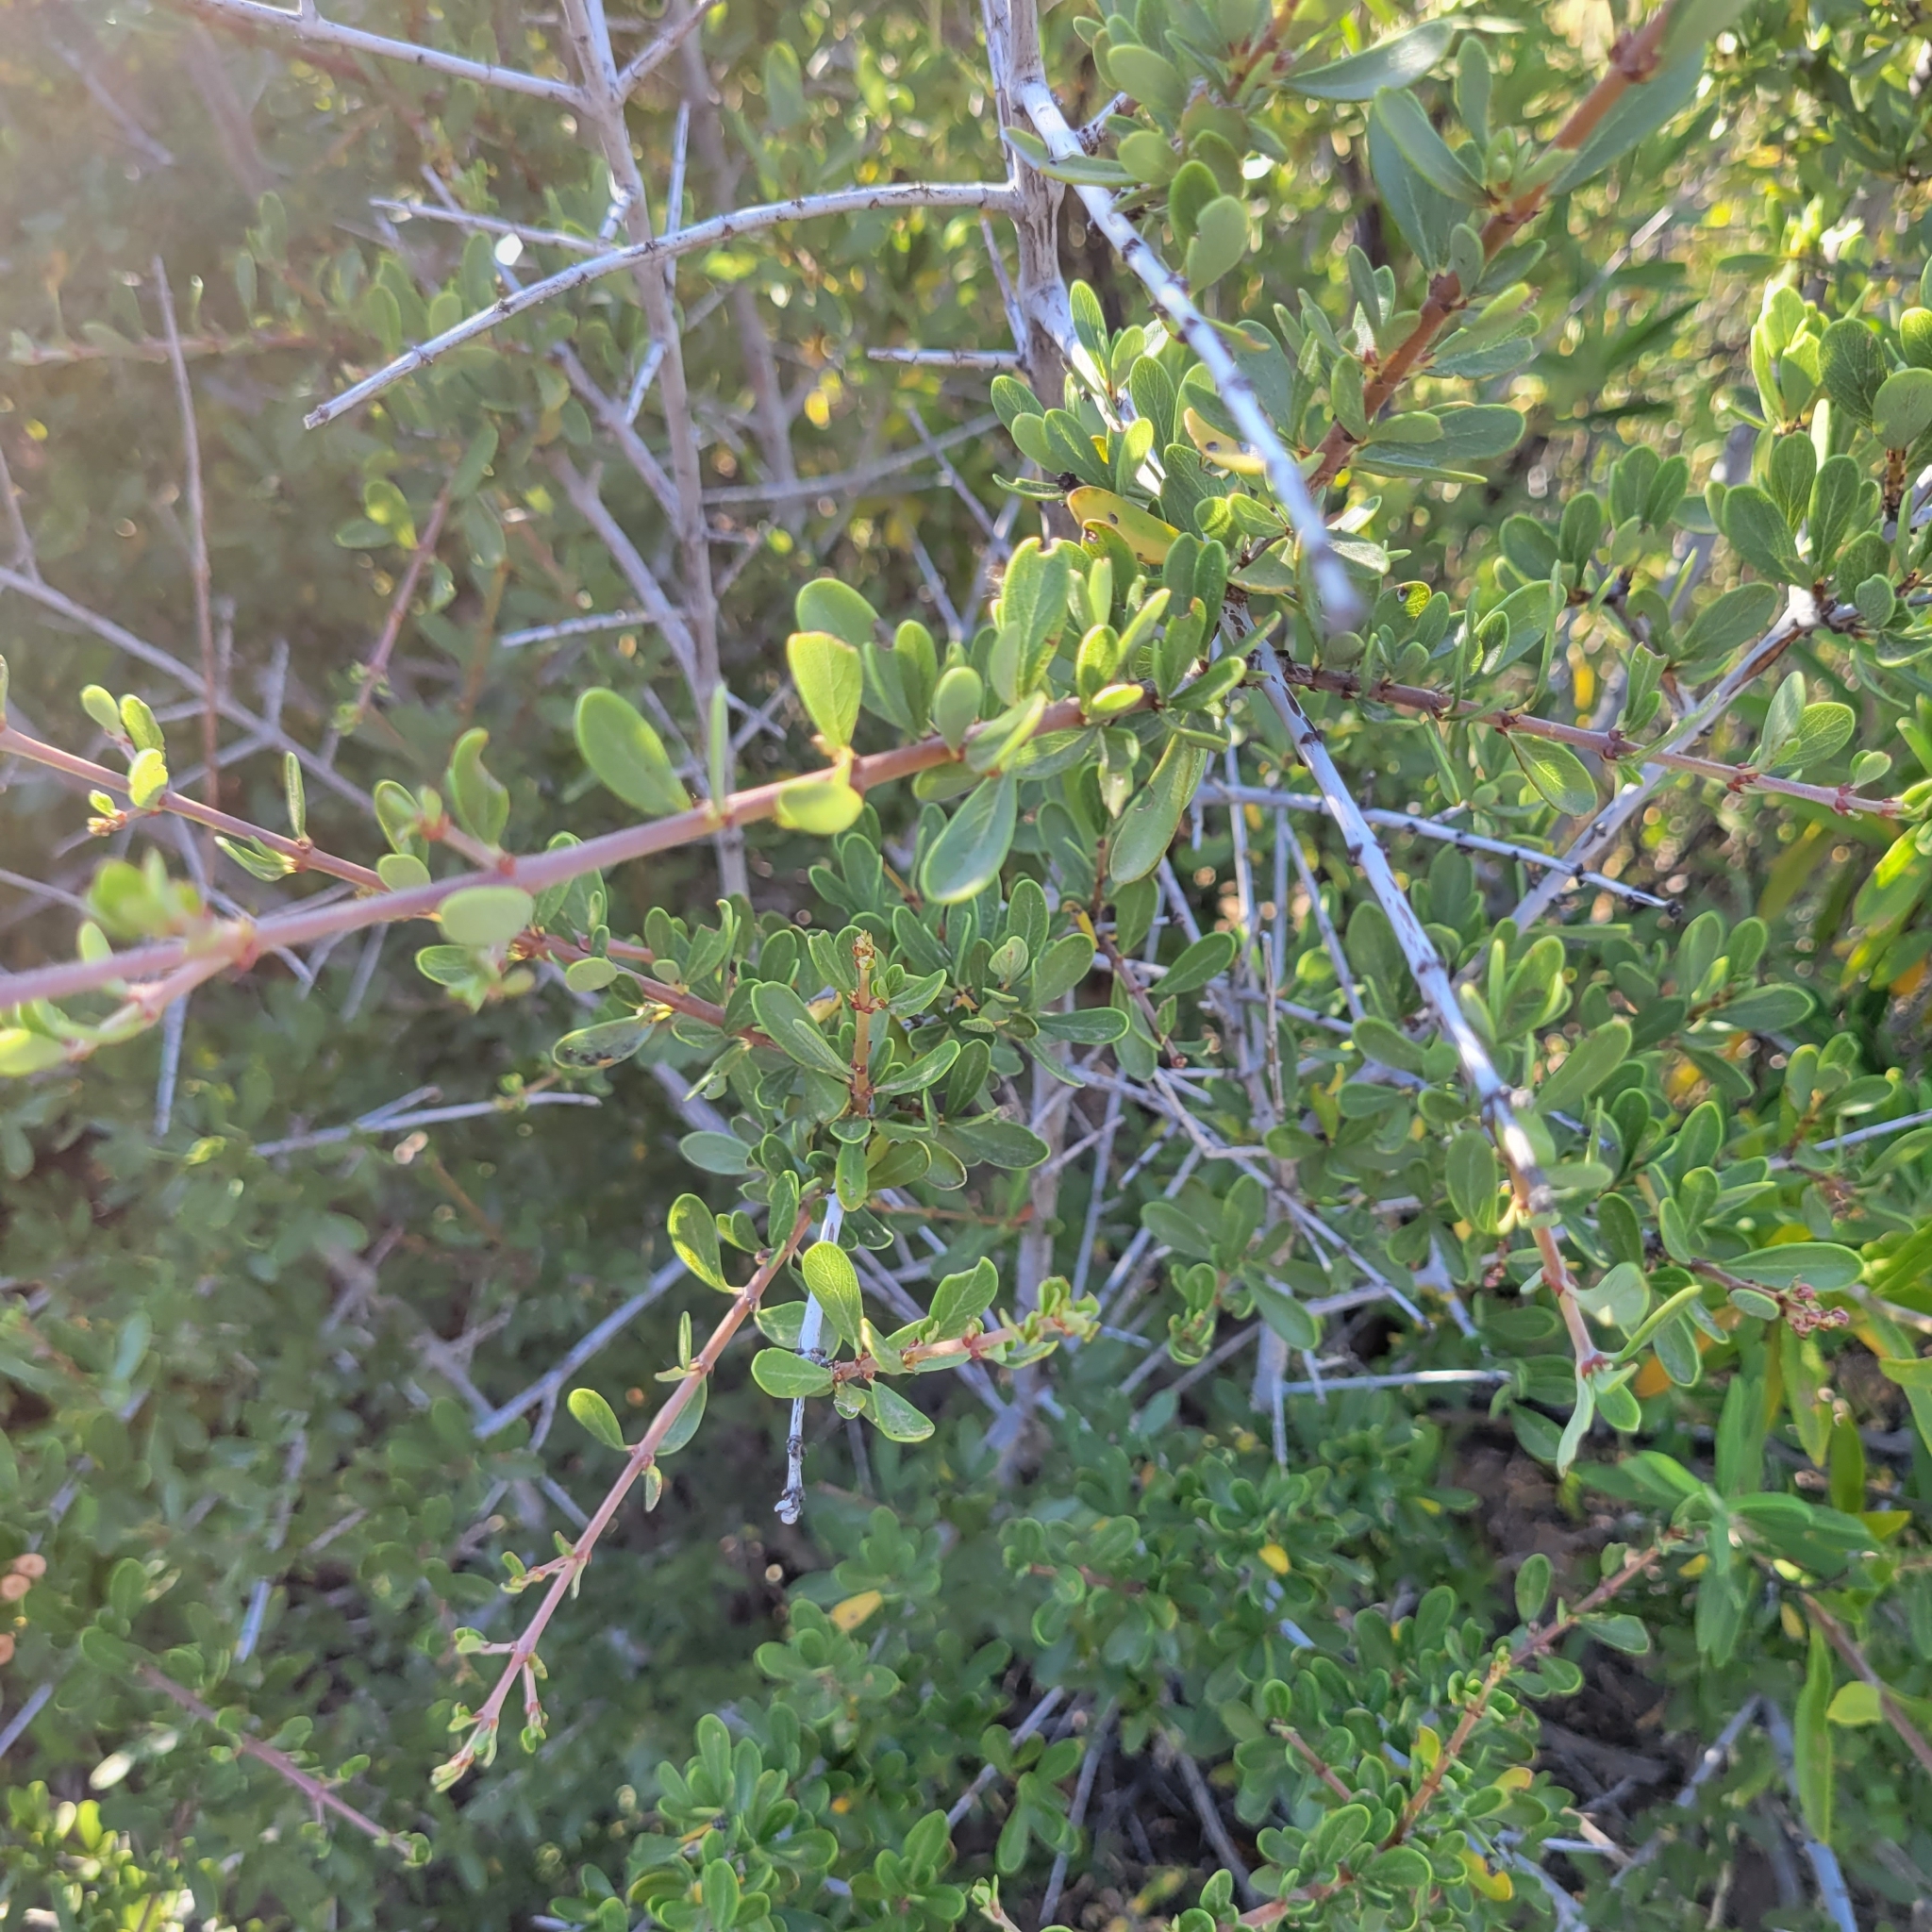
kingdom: Plantae
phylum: Tracheophyta
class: Magnoliopsida
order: Rosales
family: Rhamnaceae
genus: Ceanothus
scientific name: Ceanothus cuneatus
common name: Cuneate ceanothus
